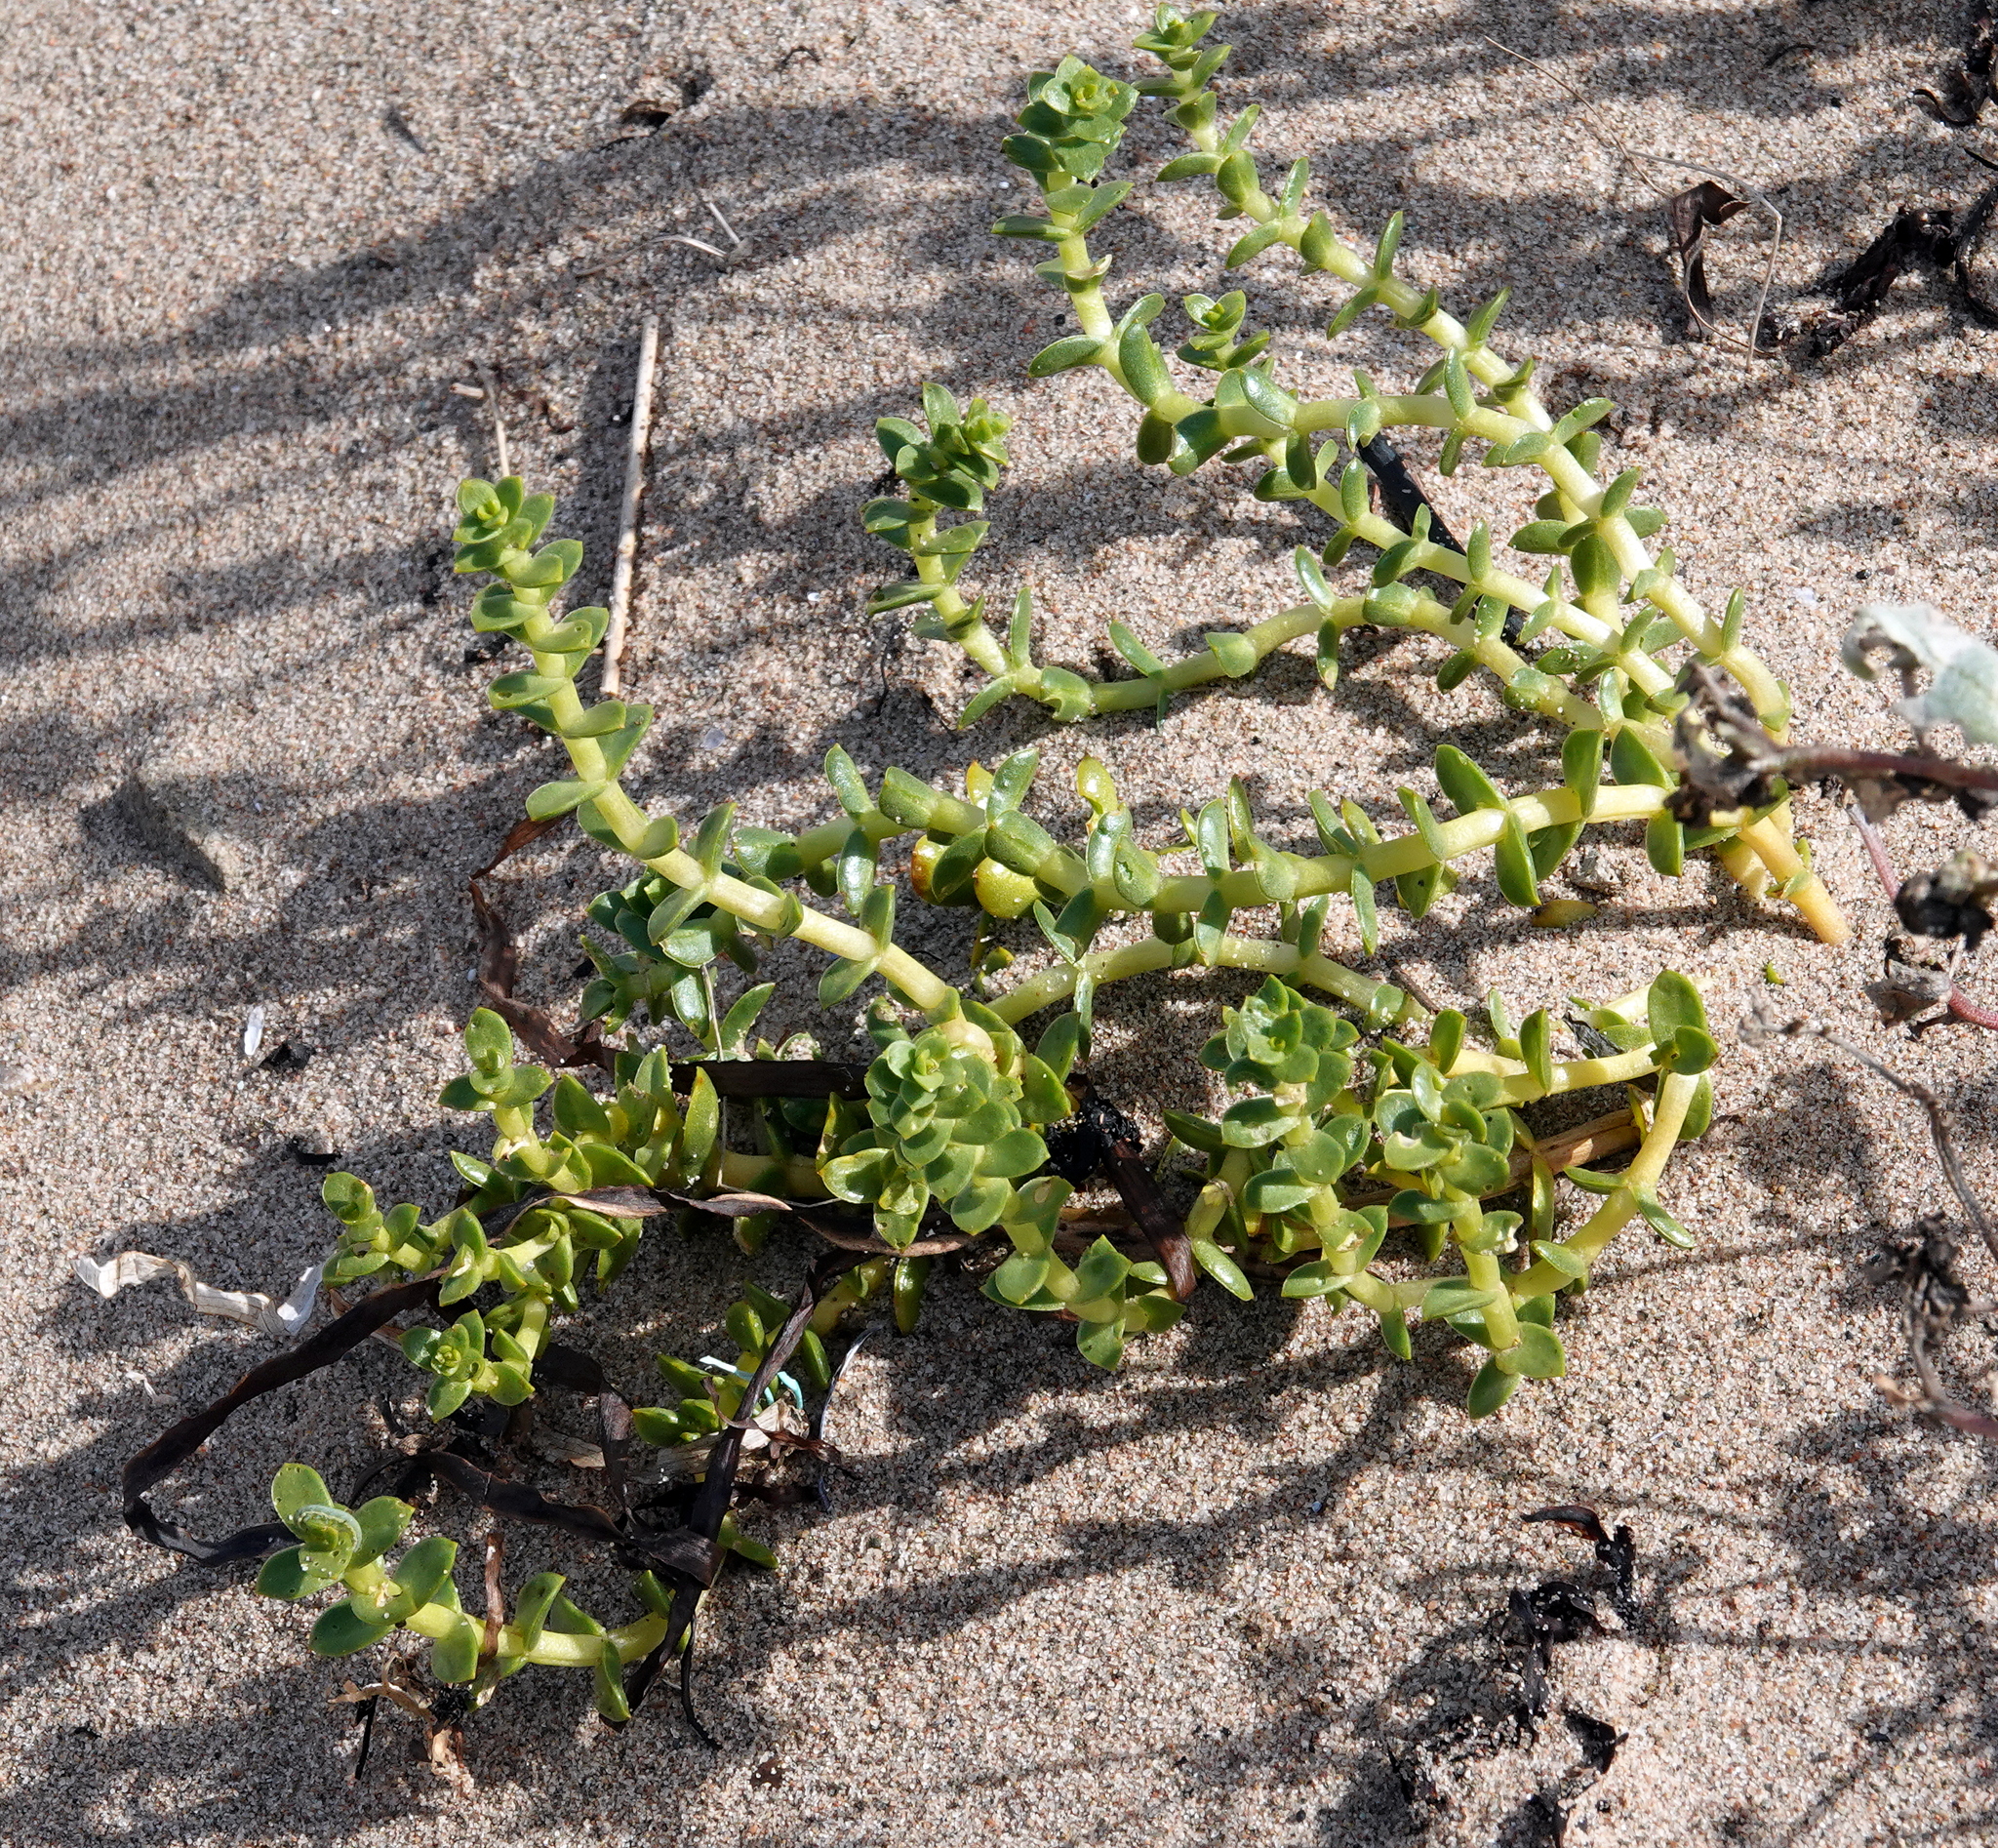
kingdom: Plantae
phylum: Tracheophyta
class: Magnoliopsida
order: Caryophyllales
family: Caryophyllaceae
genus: Honckenya
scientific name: Honckenya peploides
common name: Sea sandwort
